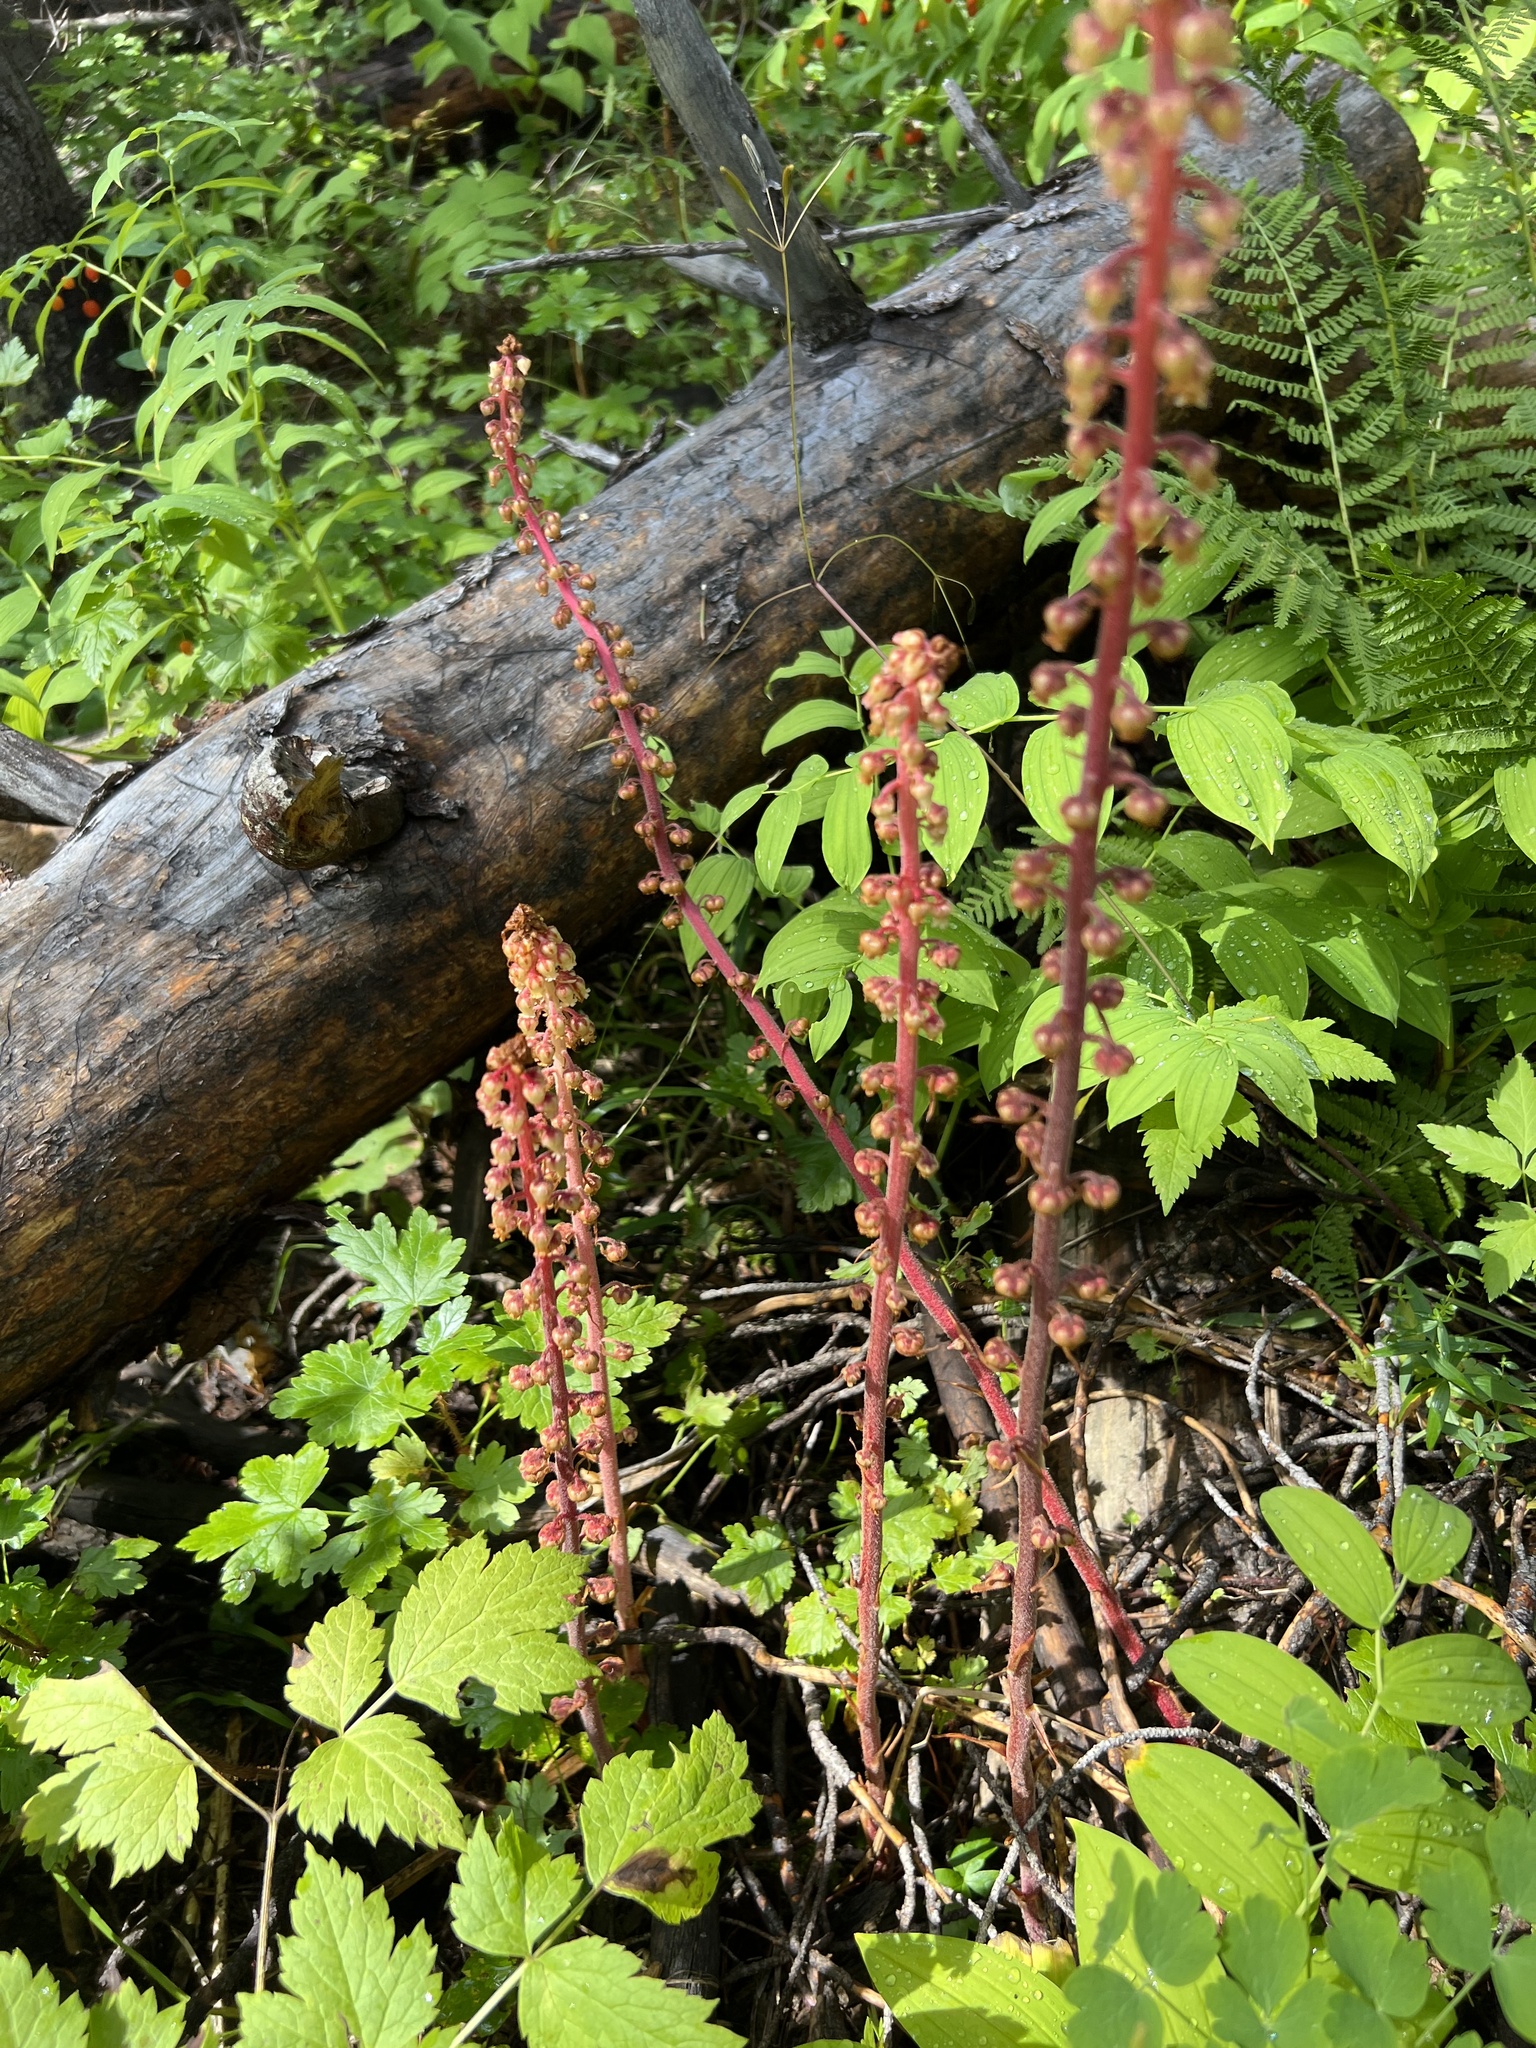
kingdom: Plantae
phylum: Tracheophyta
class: Magnoliopsida
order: Ericales
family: Ericaceae
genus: Pterospora
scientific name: Pterospora andromedea
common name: Giant bird's-nest
